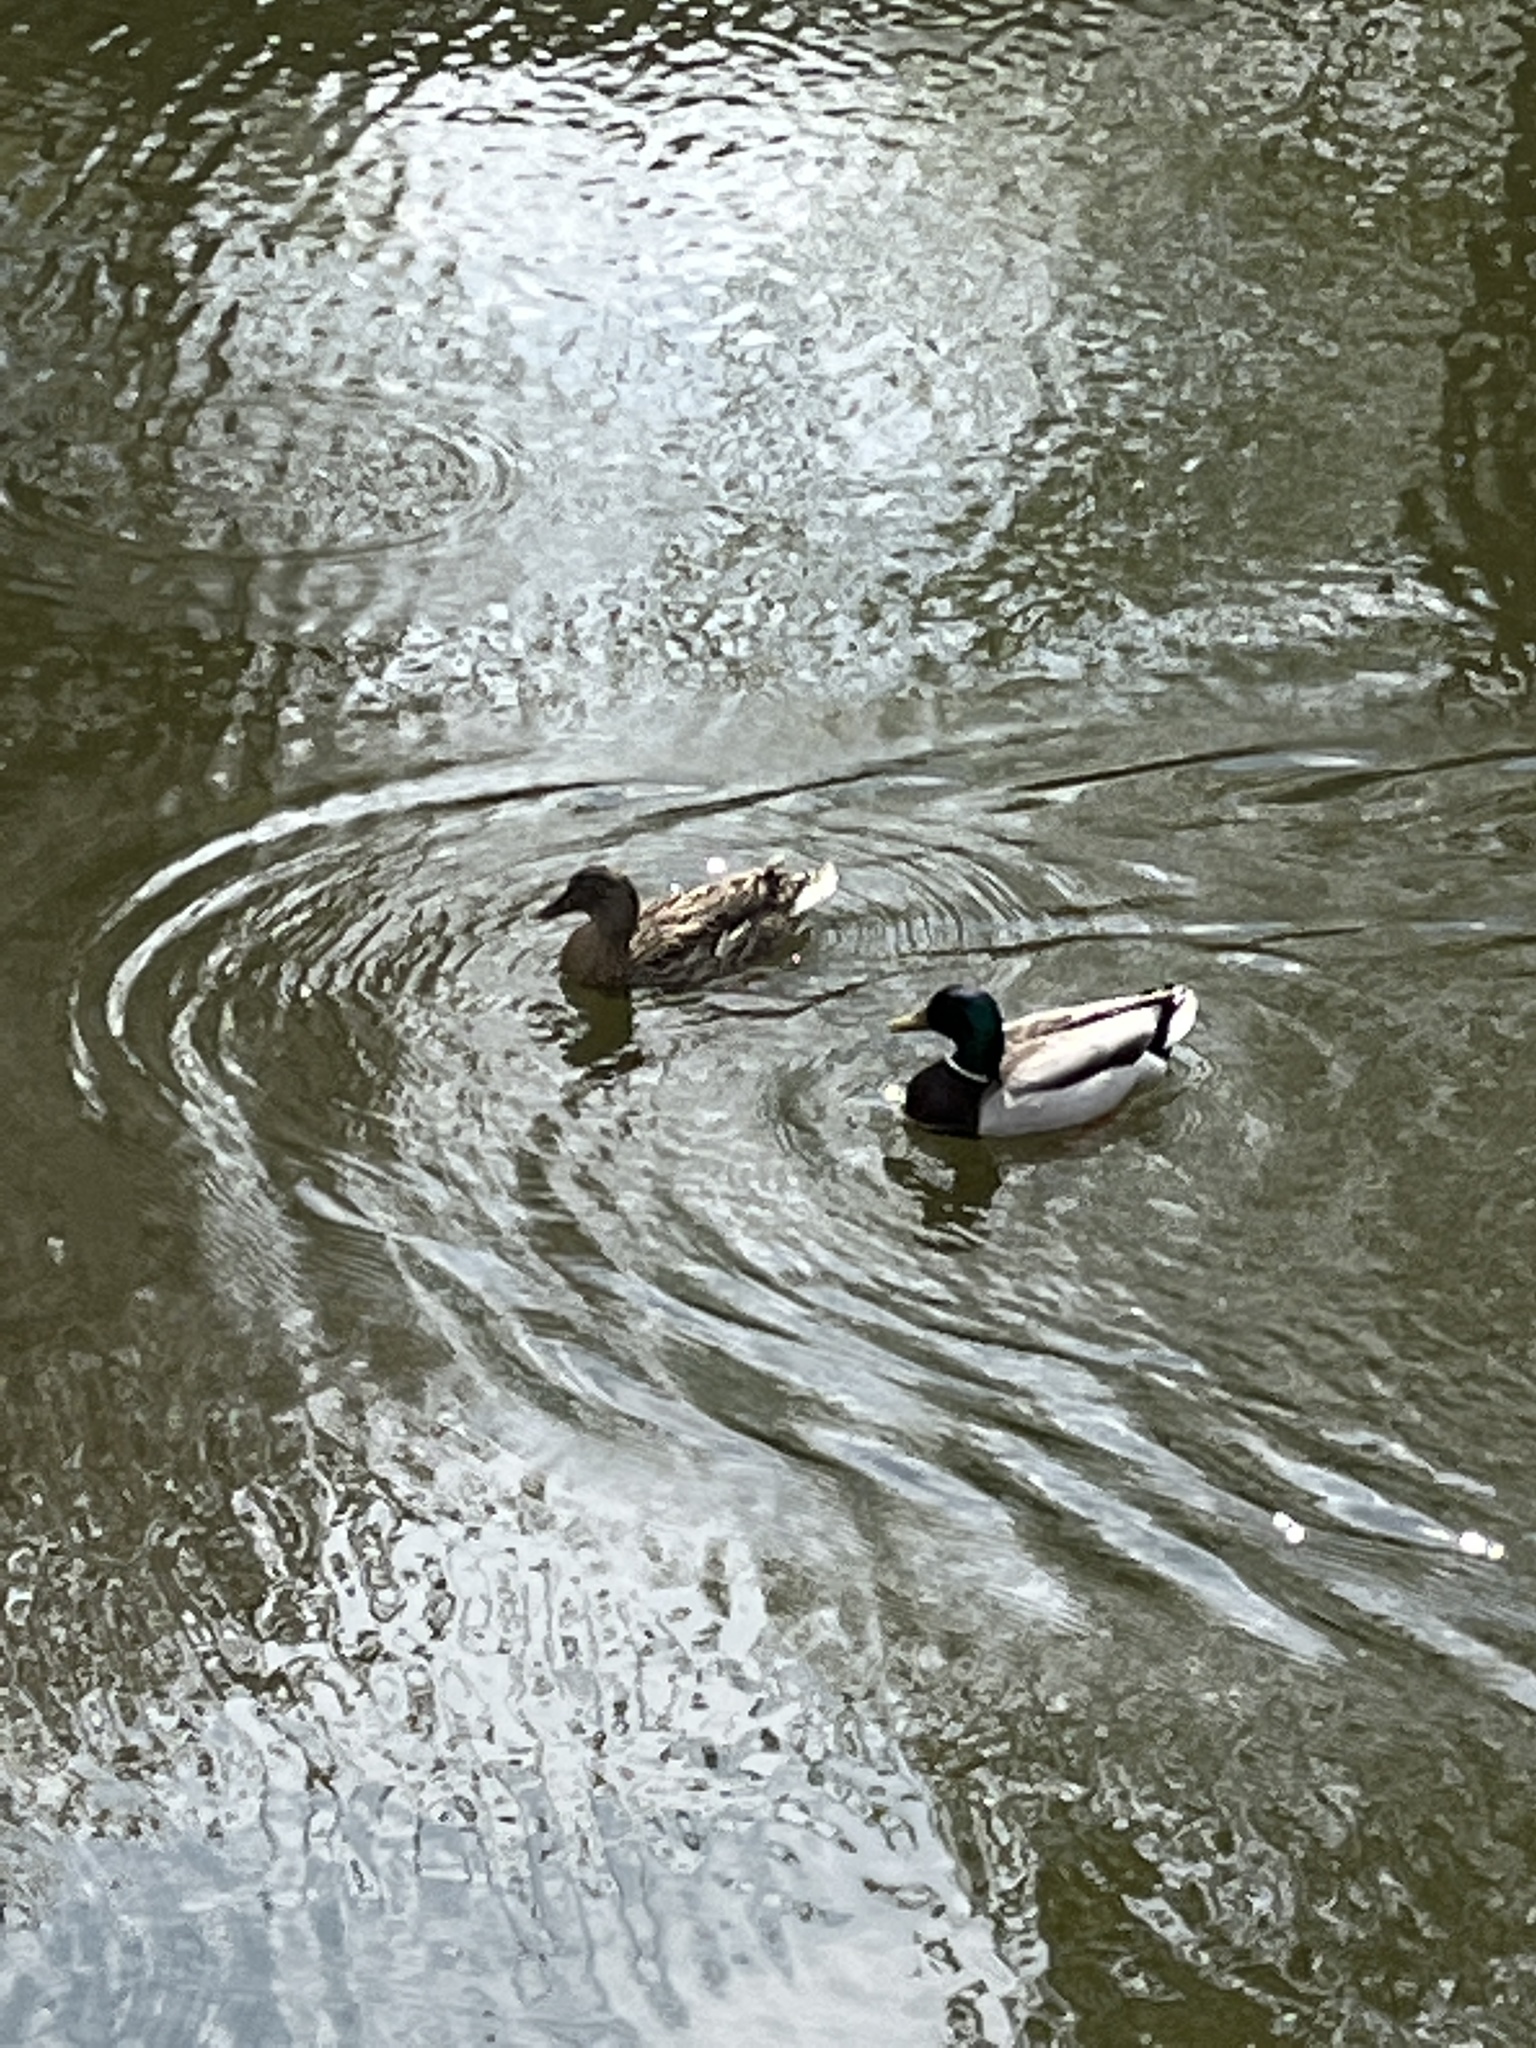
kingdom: Animalia
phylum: Chordata
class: Aves
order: Anseriformes
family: Anatidae
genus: Anas
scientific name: Anas platyrhynchos
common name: Mallard
